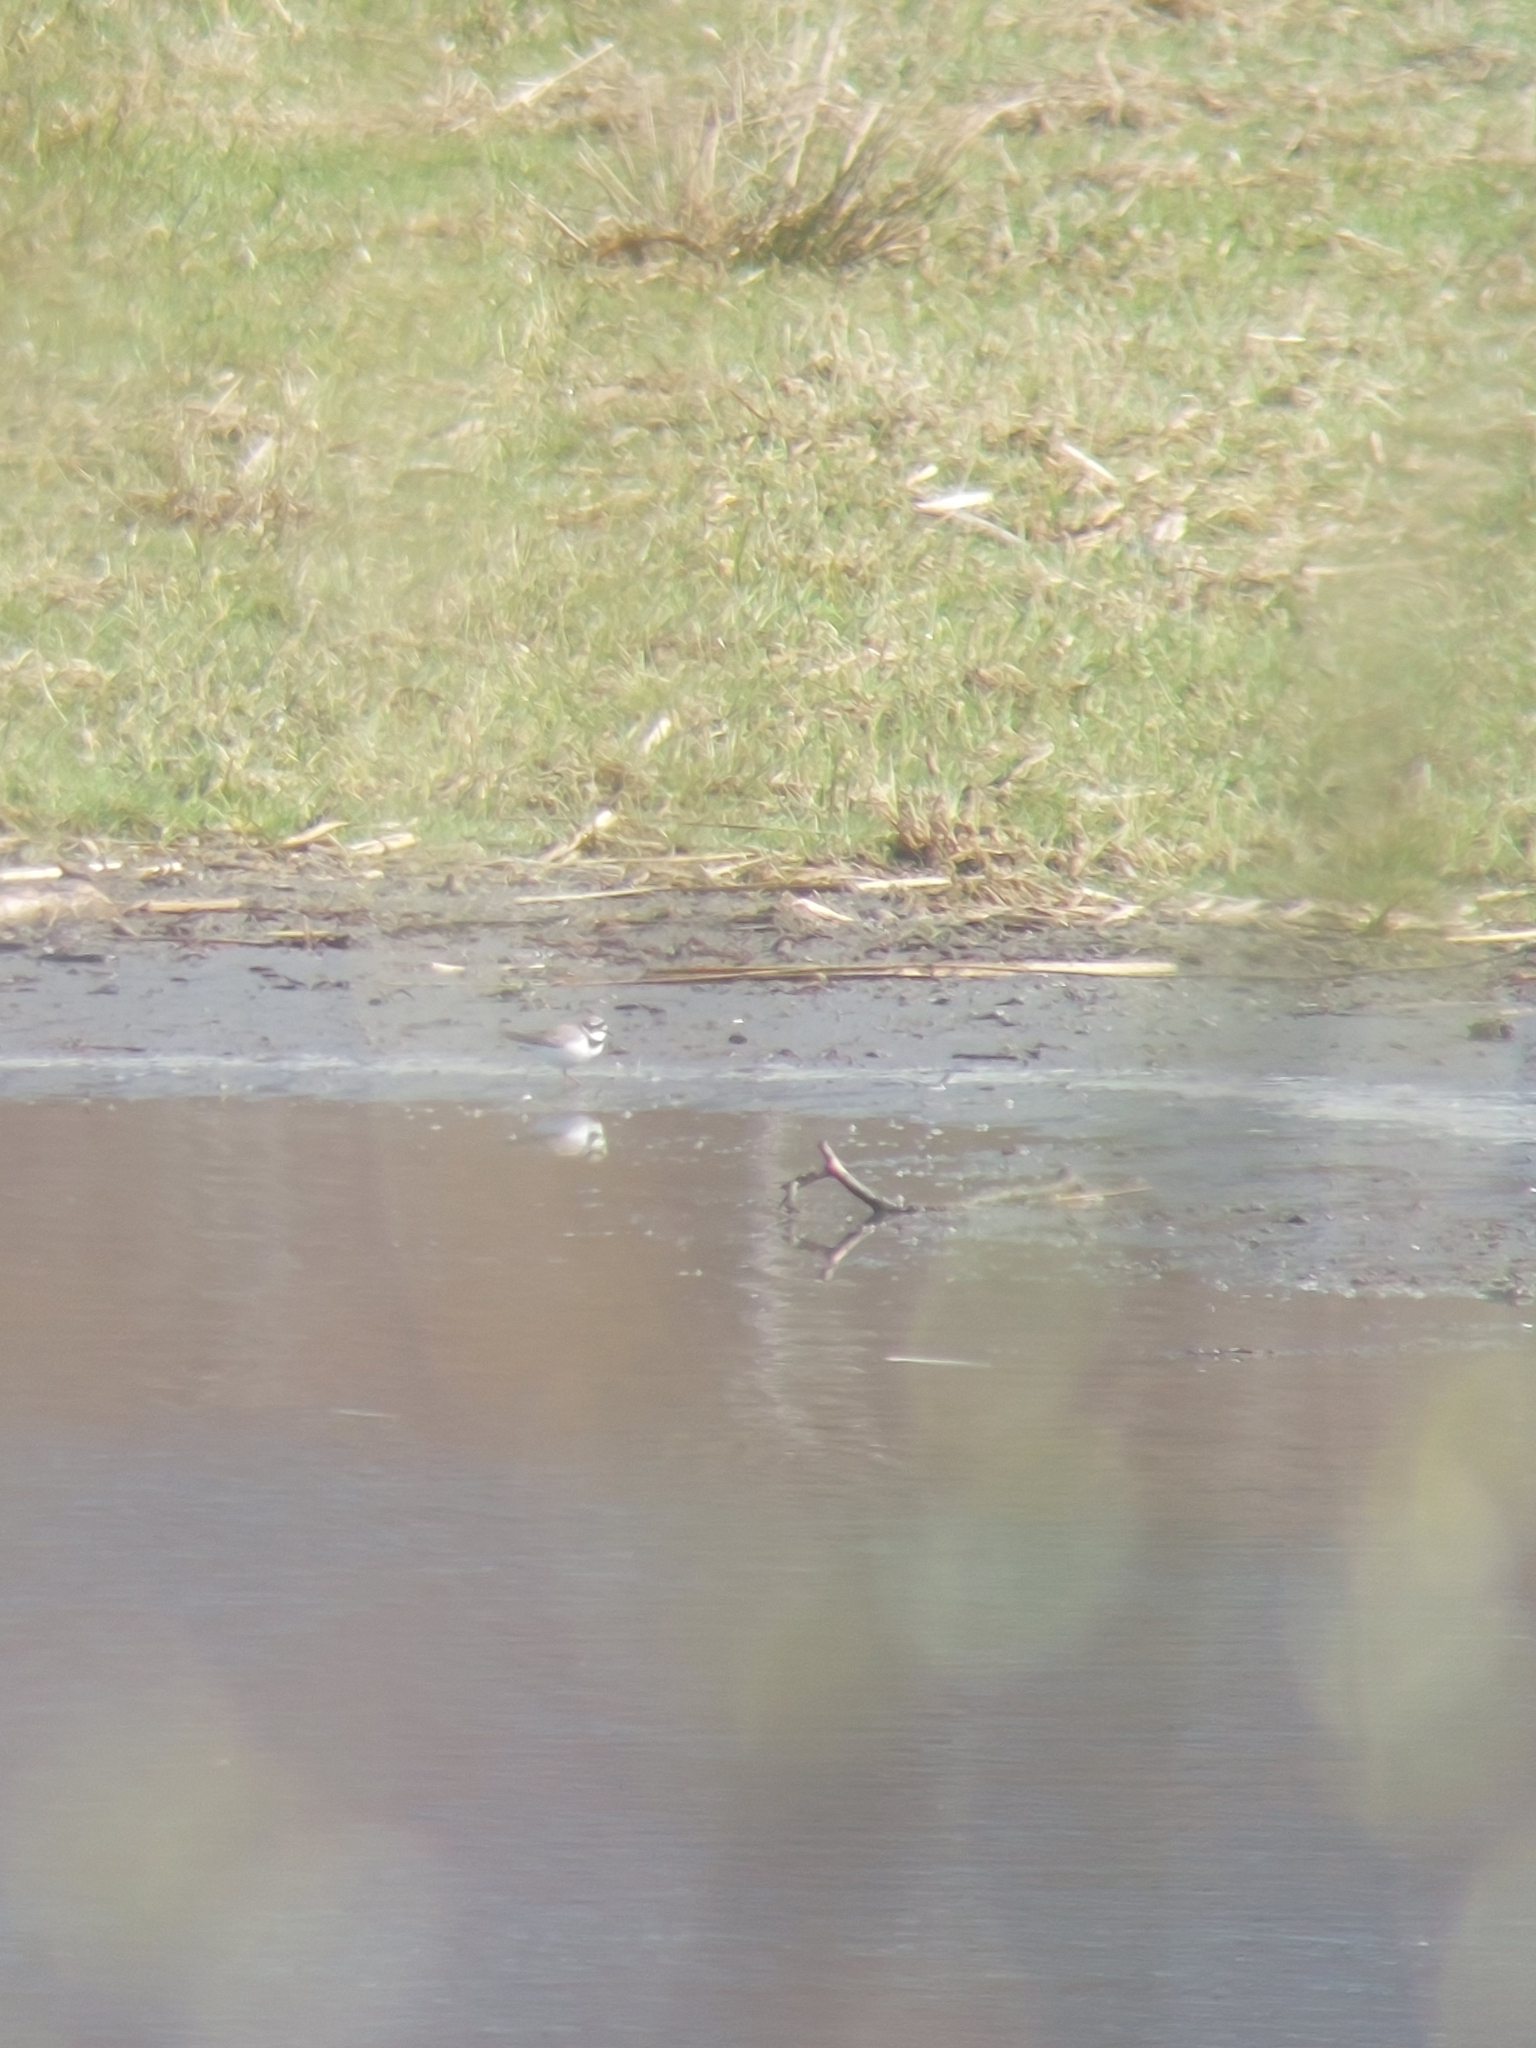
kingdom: Animalia
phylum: Chordata
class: Aves
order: Charadriiformes
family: Charadriidae
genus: Charadrius
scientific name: Charadrius dubius
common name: Little ringed plover
